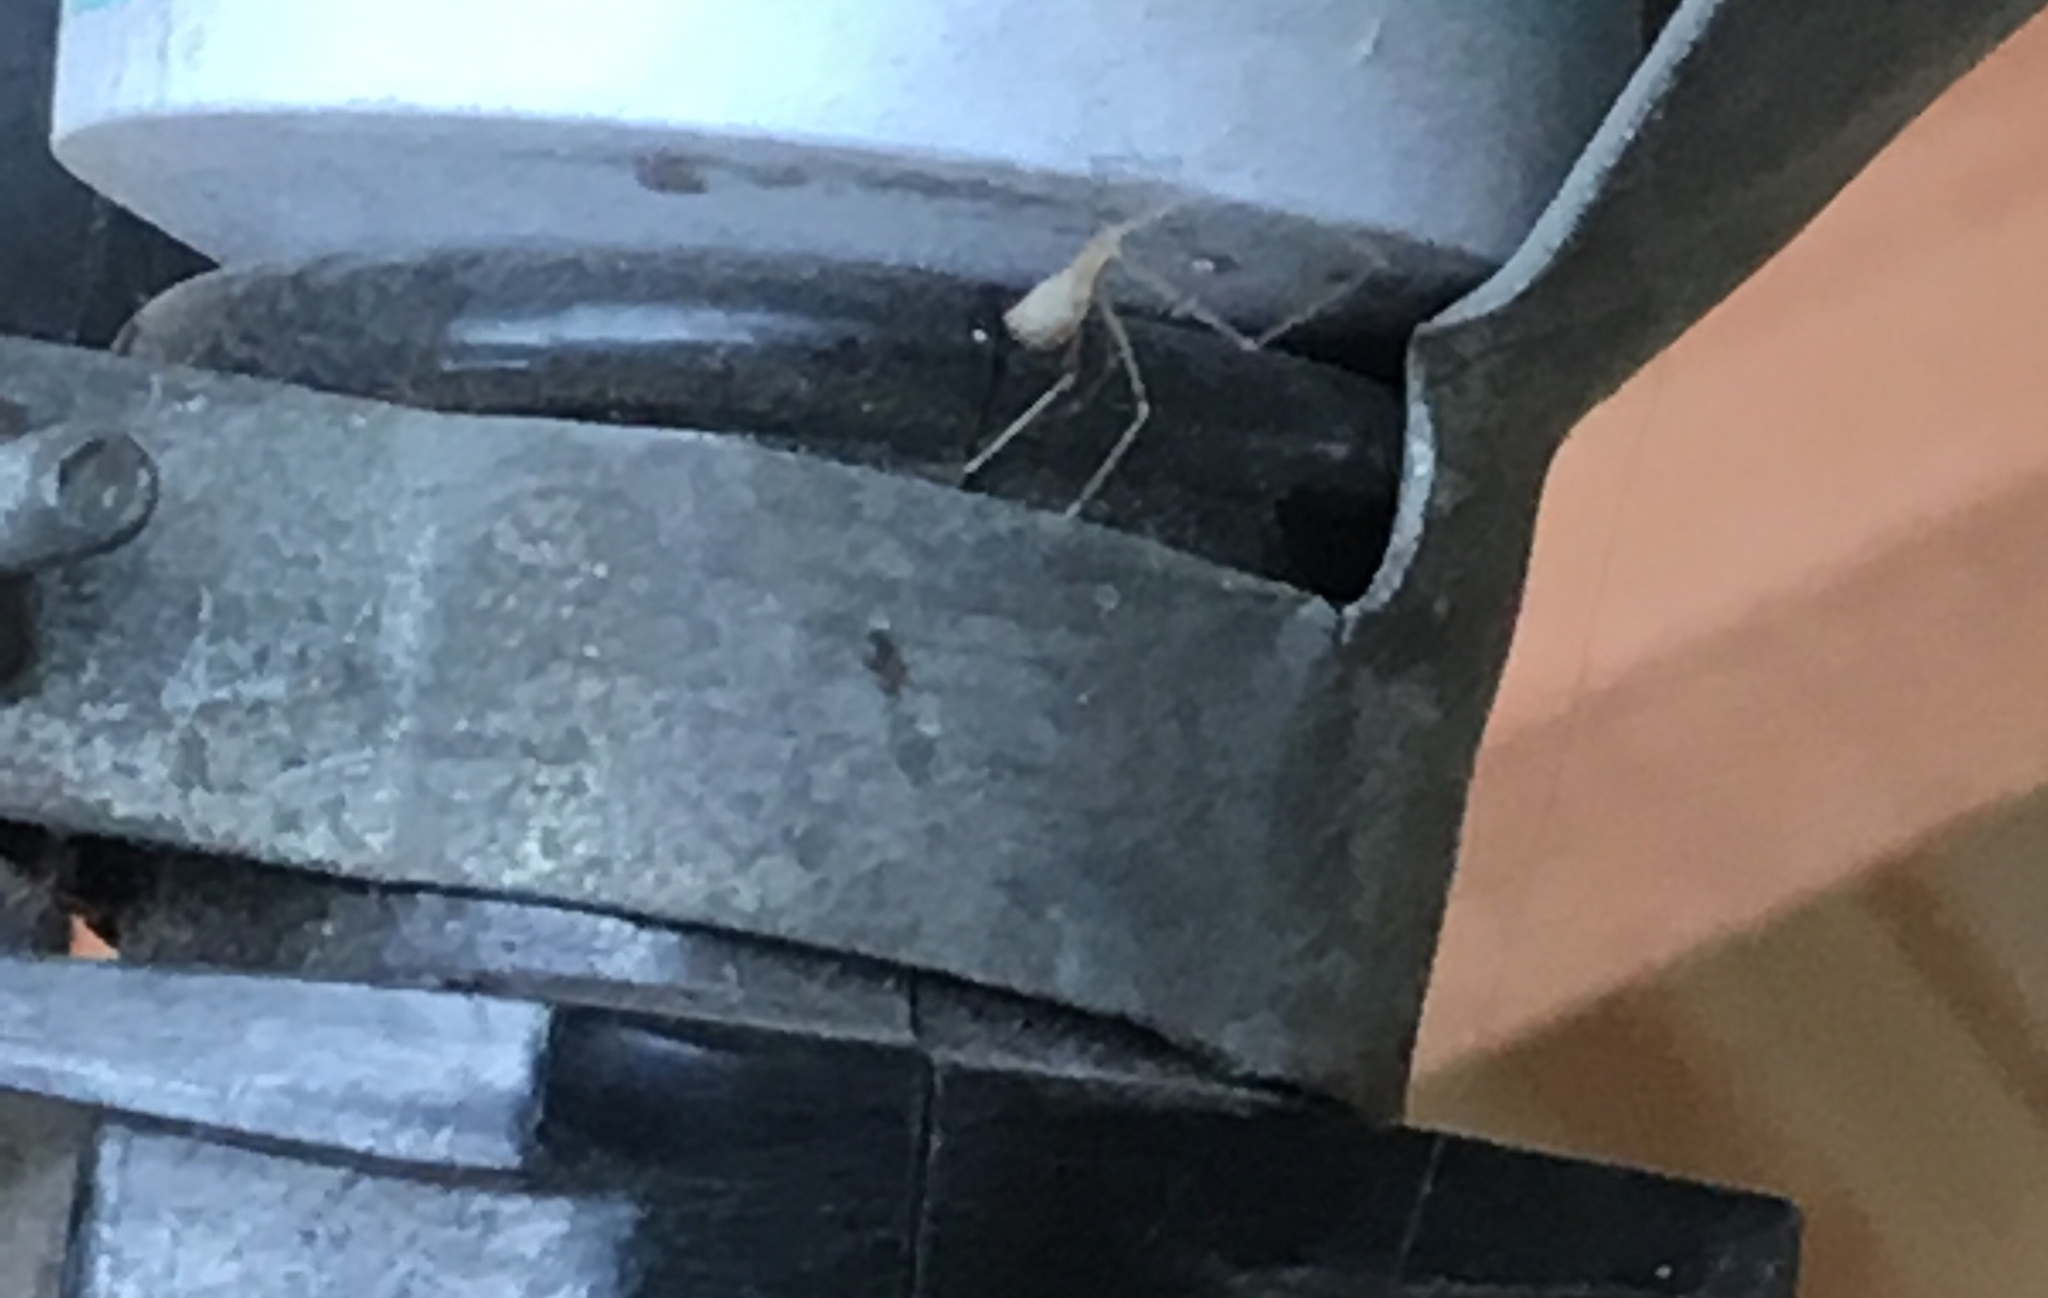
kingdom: Animalia
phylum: Arthropoda
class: Arachnida
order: Araneae
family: Pholcidae
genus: Pholcus
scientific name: Pholcus phalangioides
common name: Longbodied cellar spider
